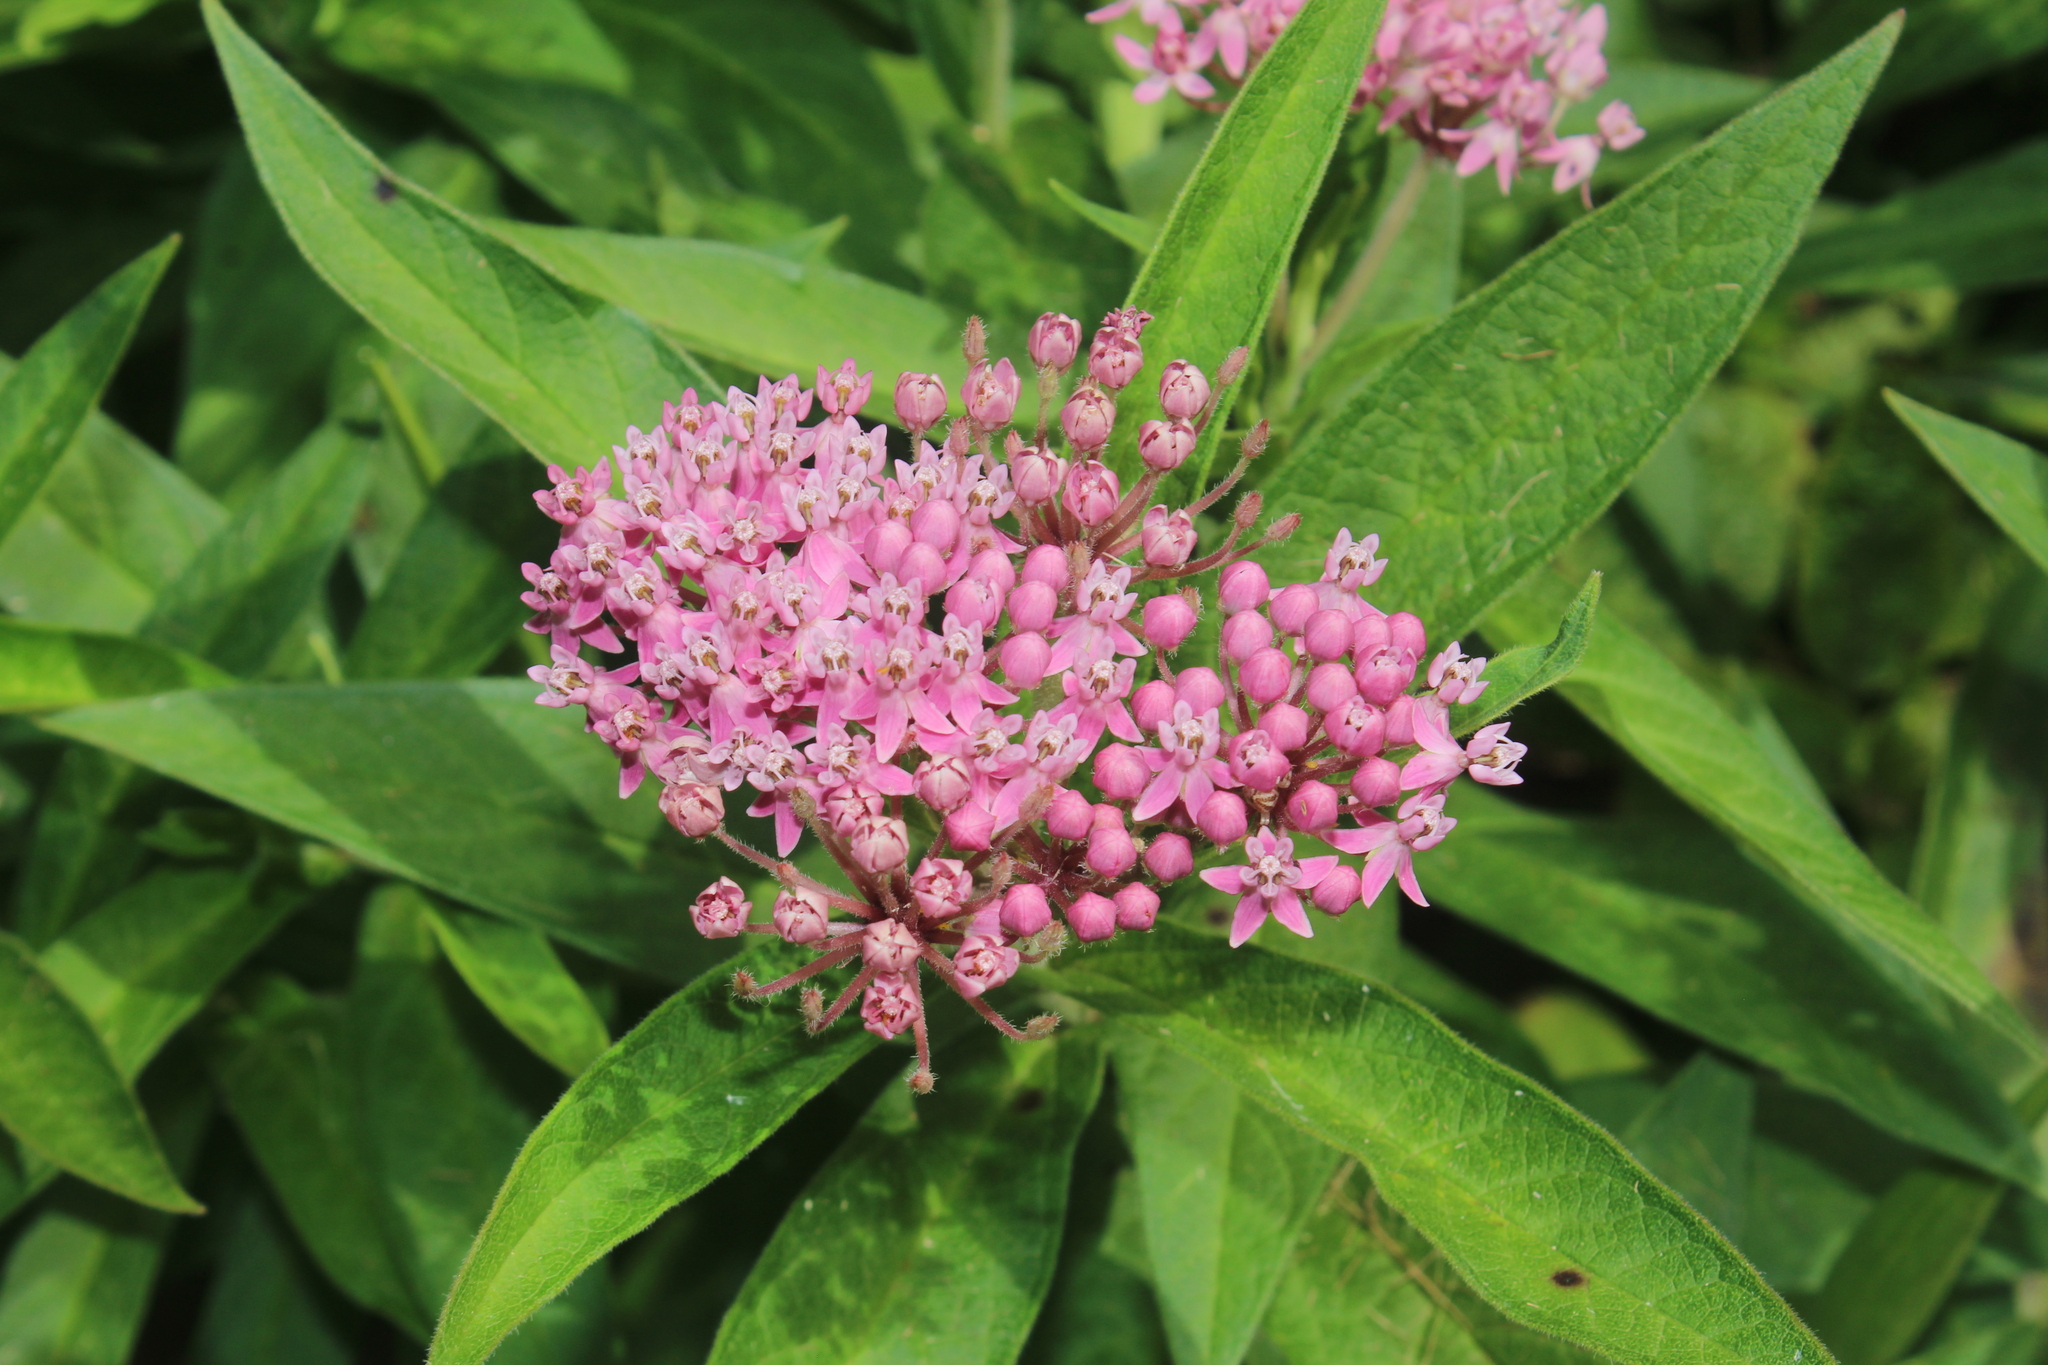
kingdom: Plantae
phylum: Tracheophyta
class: Magnoliopsida
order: Gentianales
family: Apocynaceae
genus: Asclepias
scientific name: Asclepias incarnata
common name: Swamp milkweed
